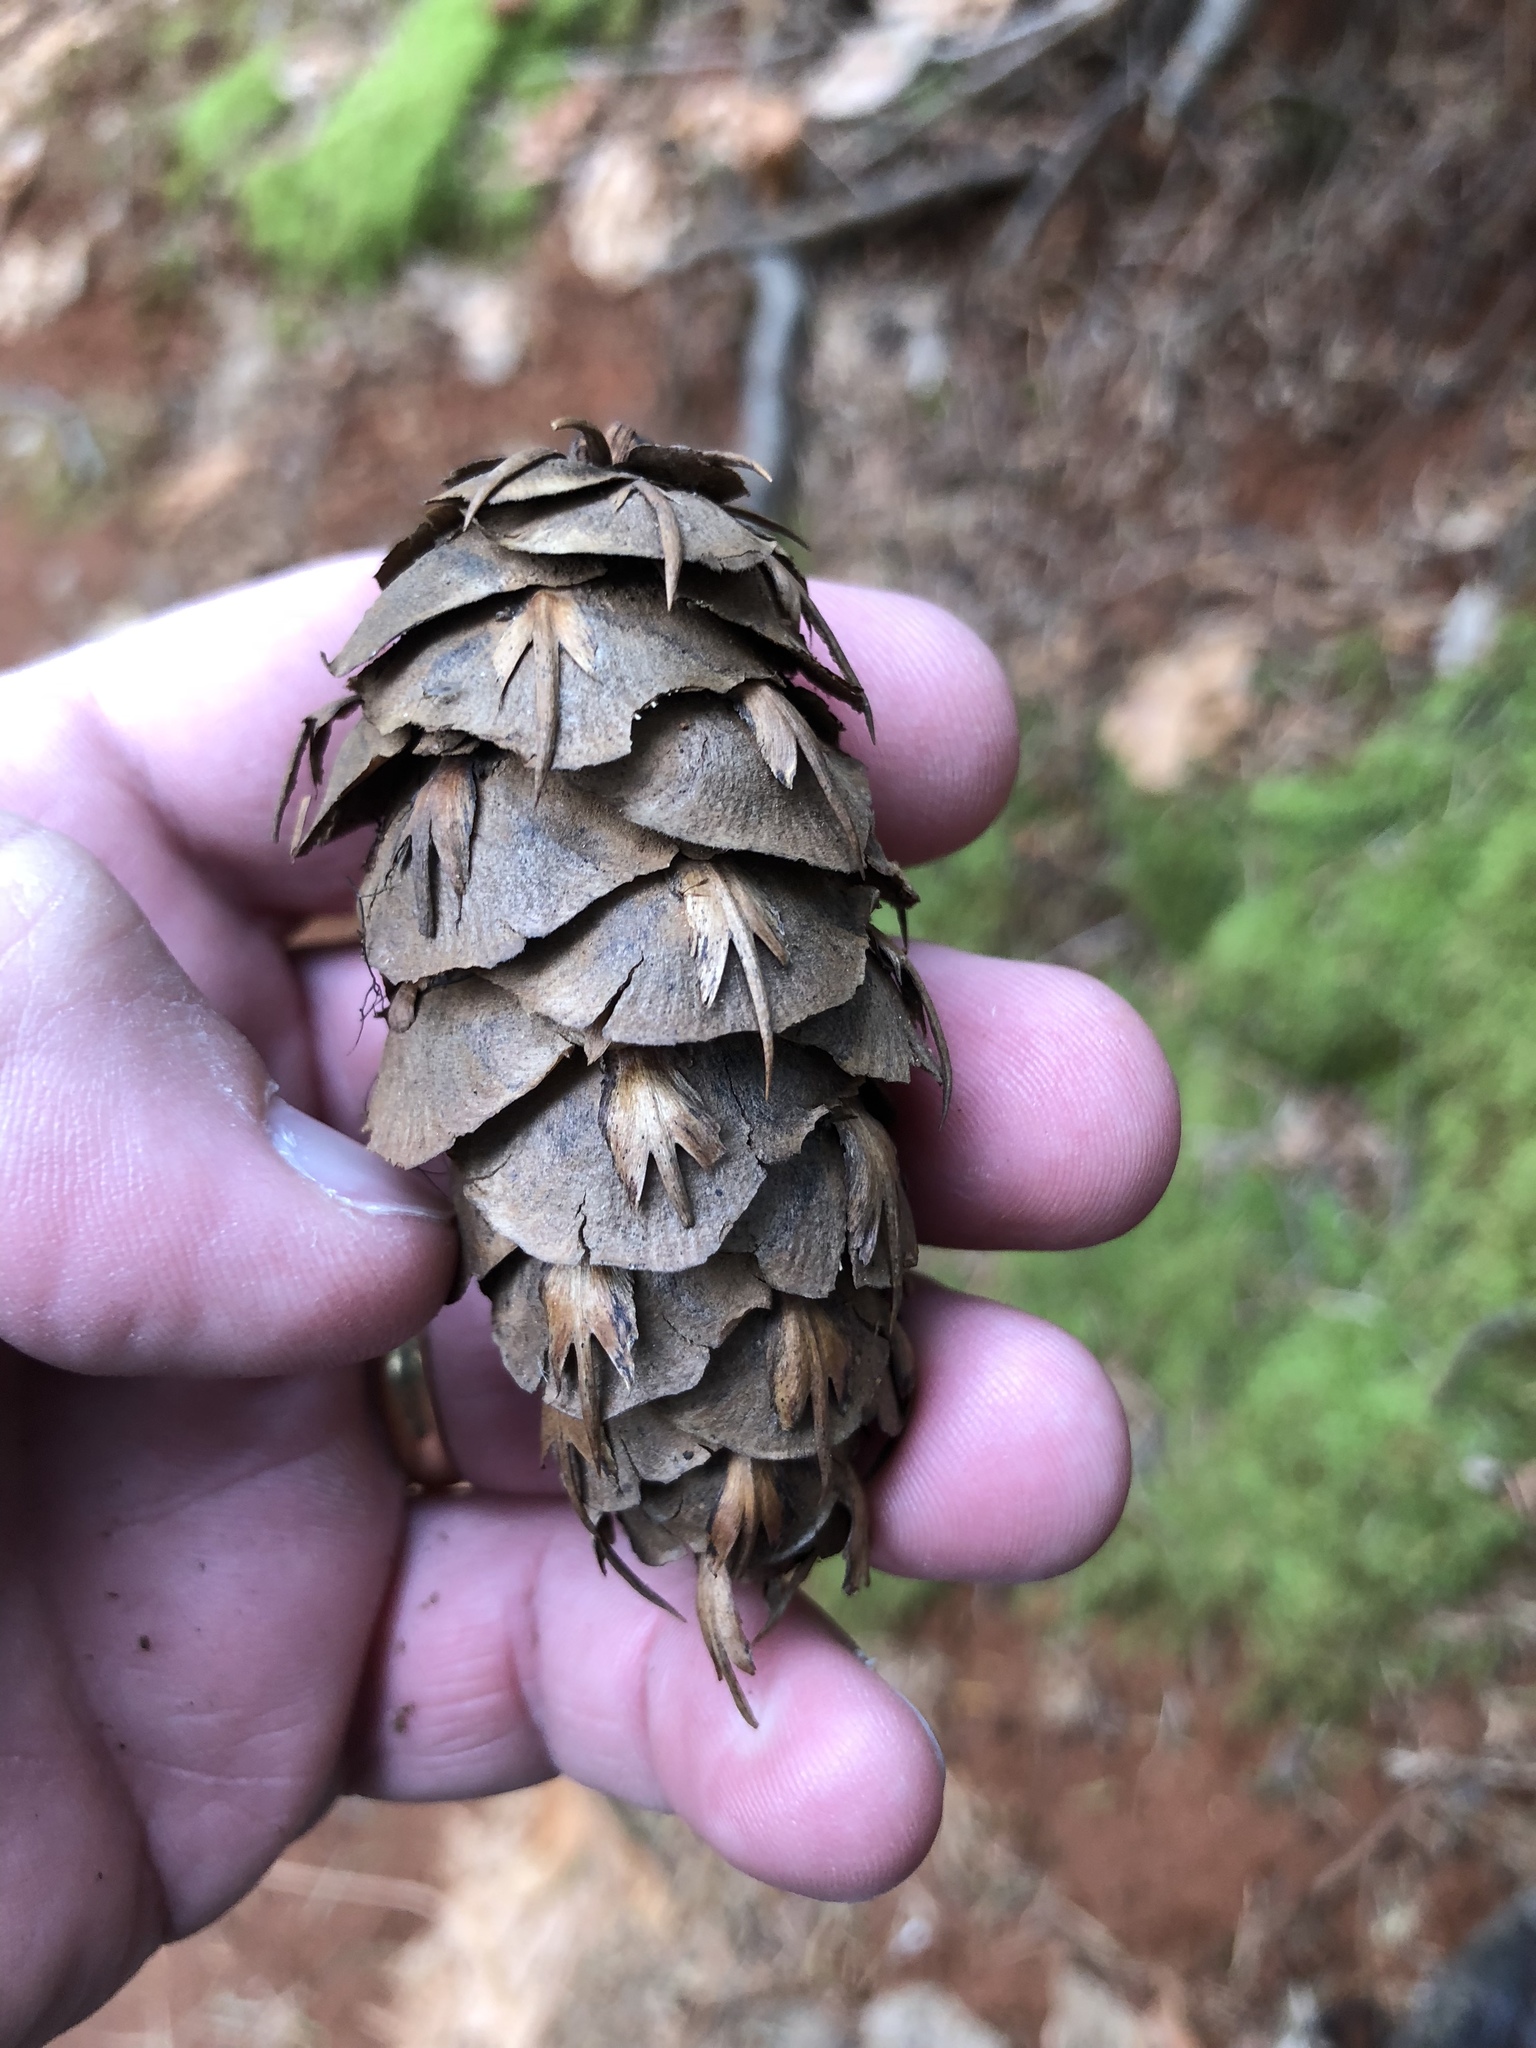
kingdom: Plantae
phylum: Tracheophyta
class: Pinopsida
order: Pinales
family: Pinaceae
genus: Pseudotsuga
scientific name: Pseudotsuga menziesii
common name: Douglas fir
